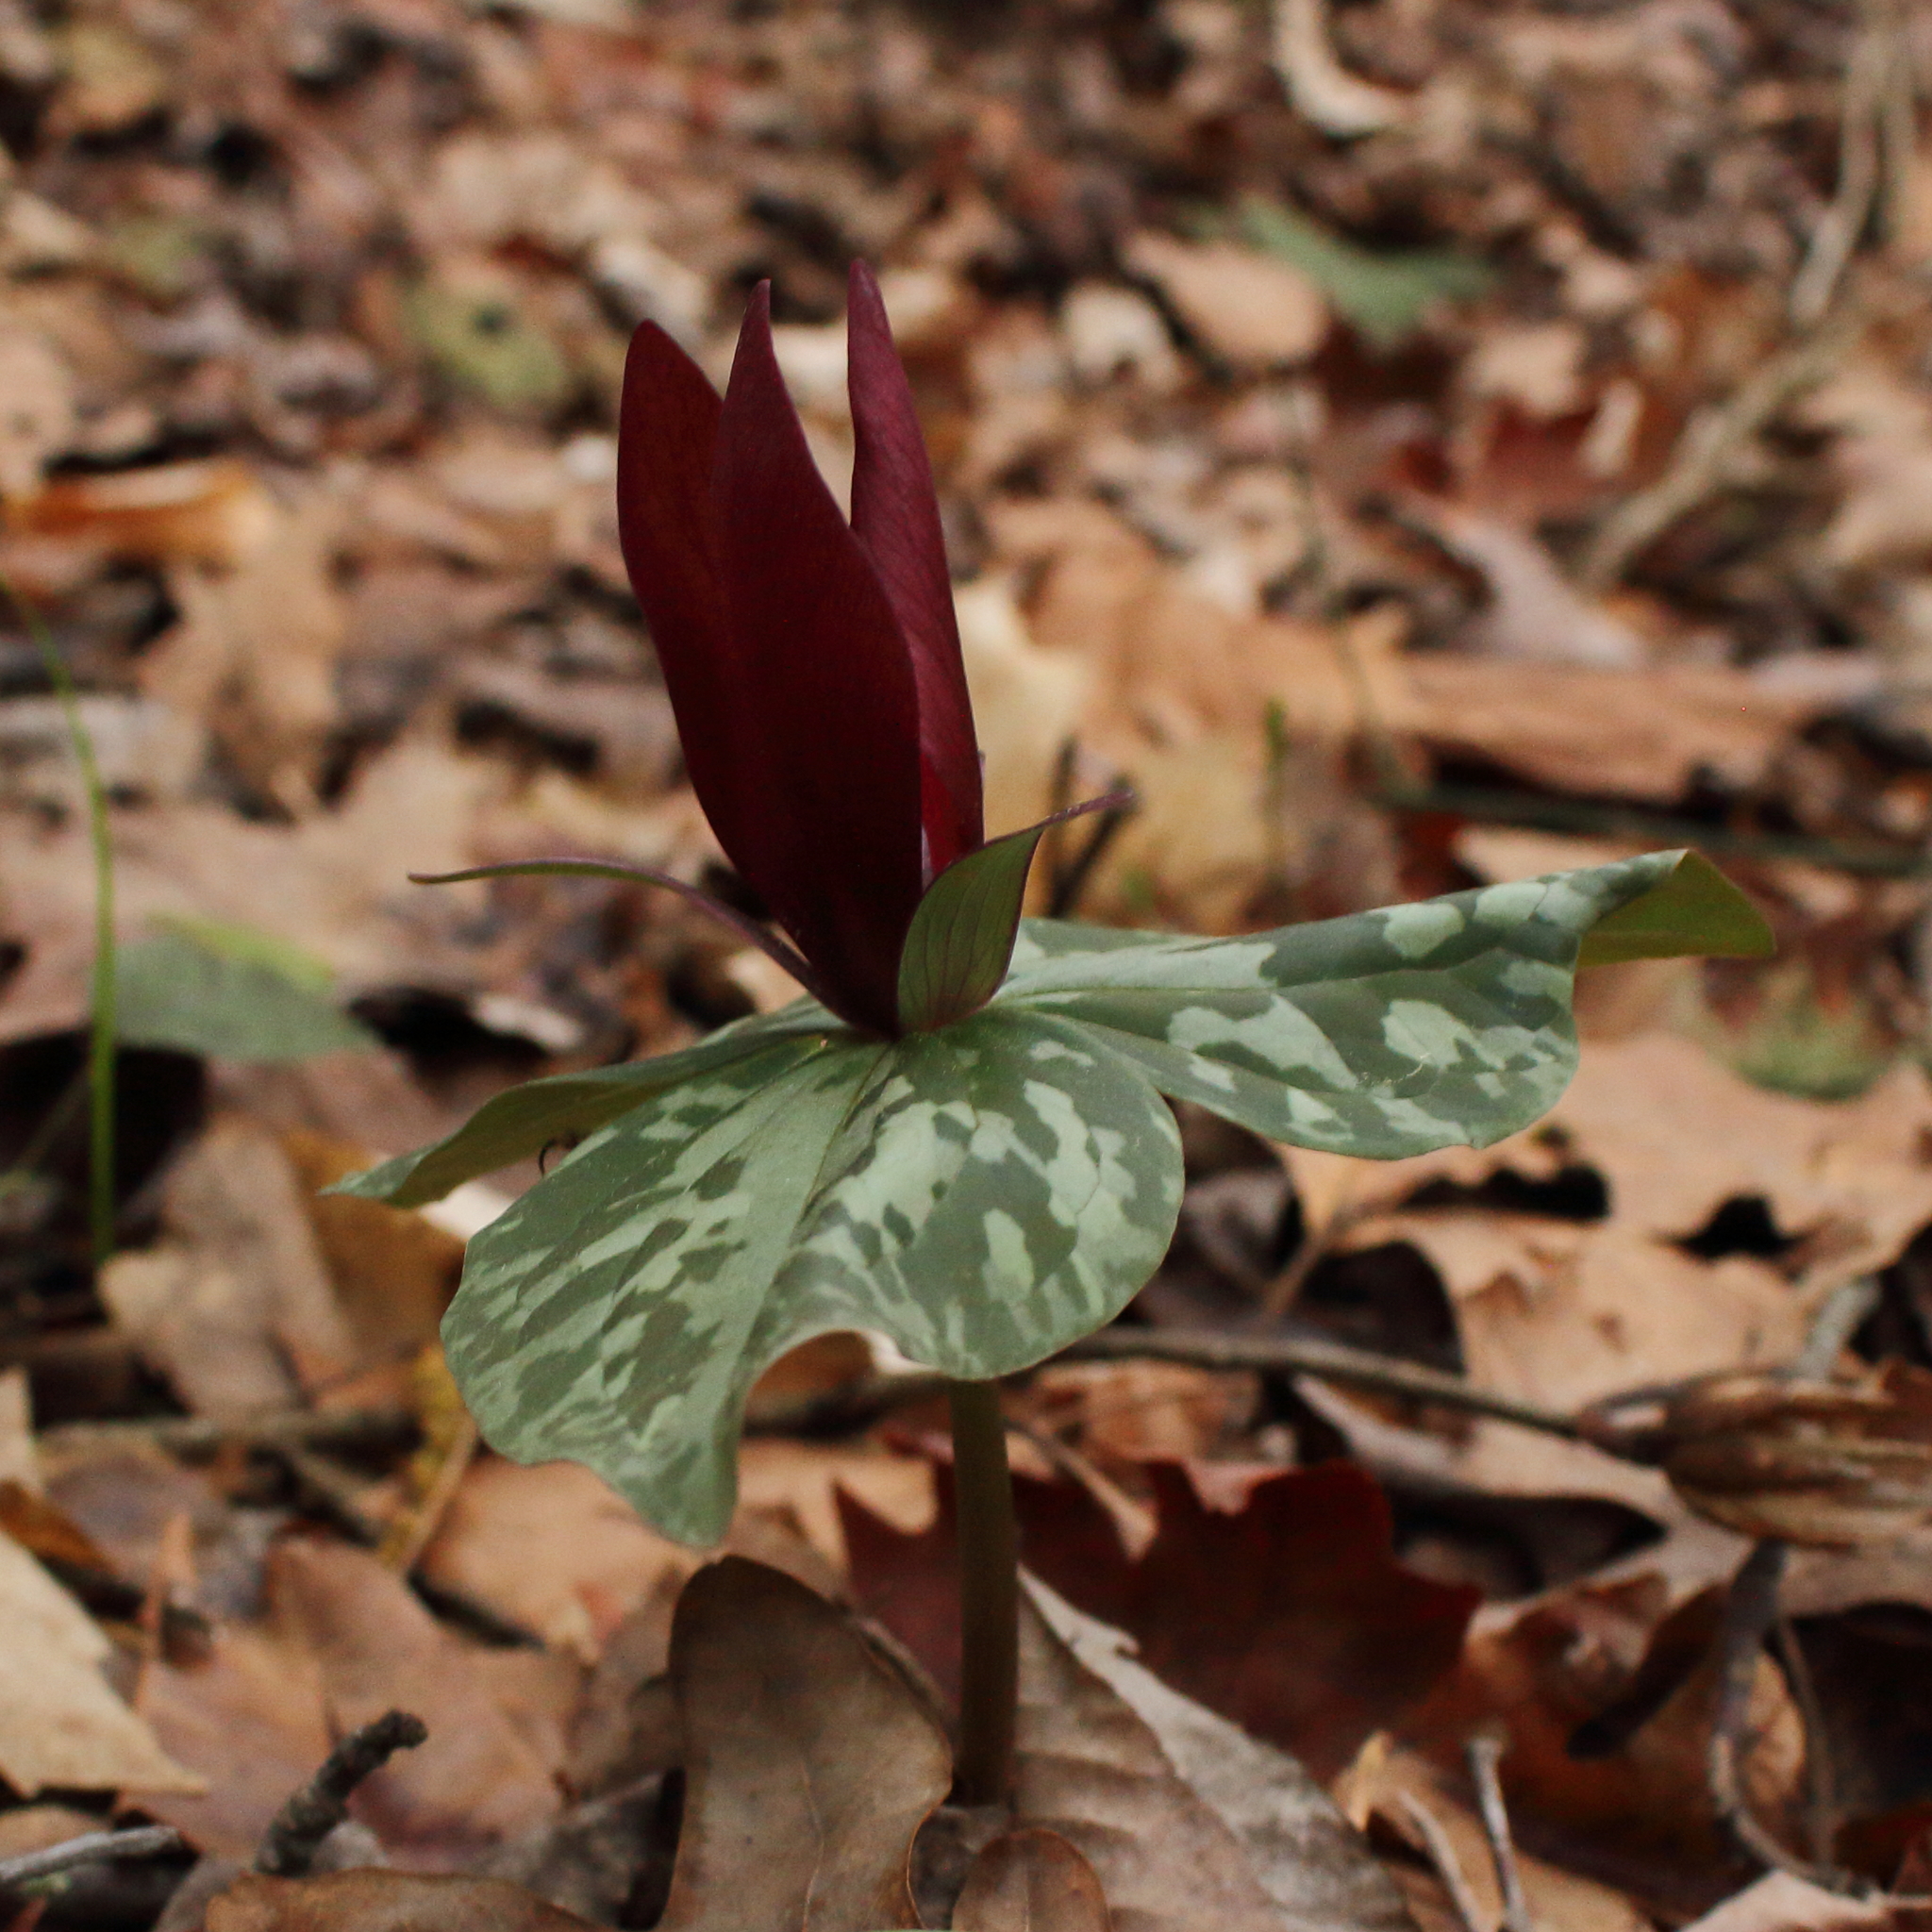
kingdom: Plantae
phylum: Tracheophyta
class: Liliopsida
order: Liliales
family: Melanthiaceae
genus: Trillium
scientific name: Trillium cuneatum
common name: Cuneate trillium
